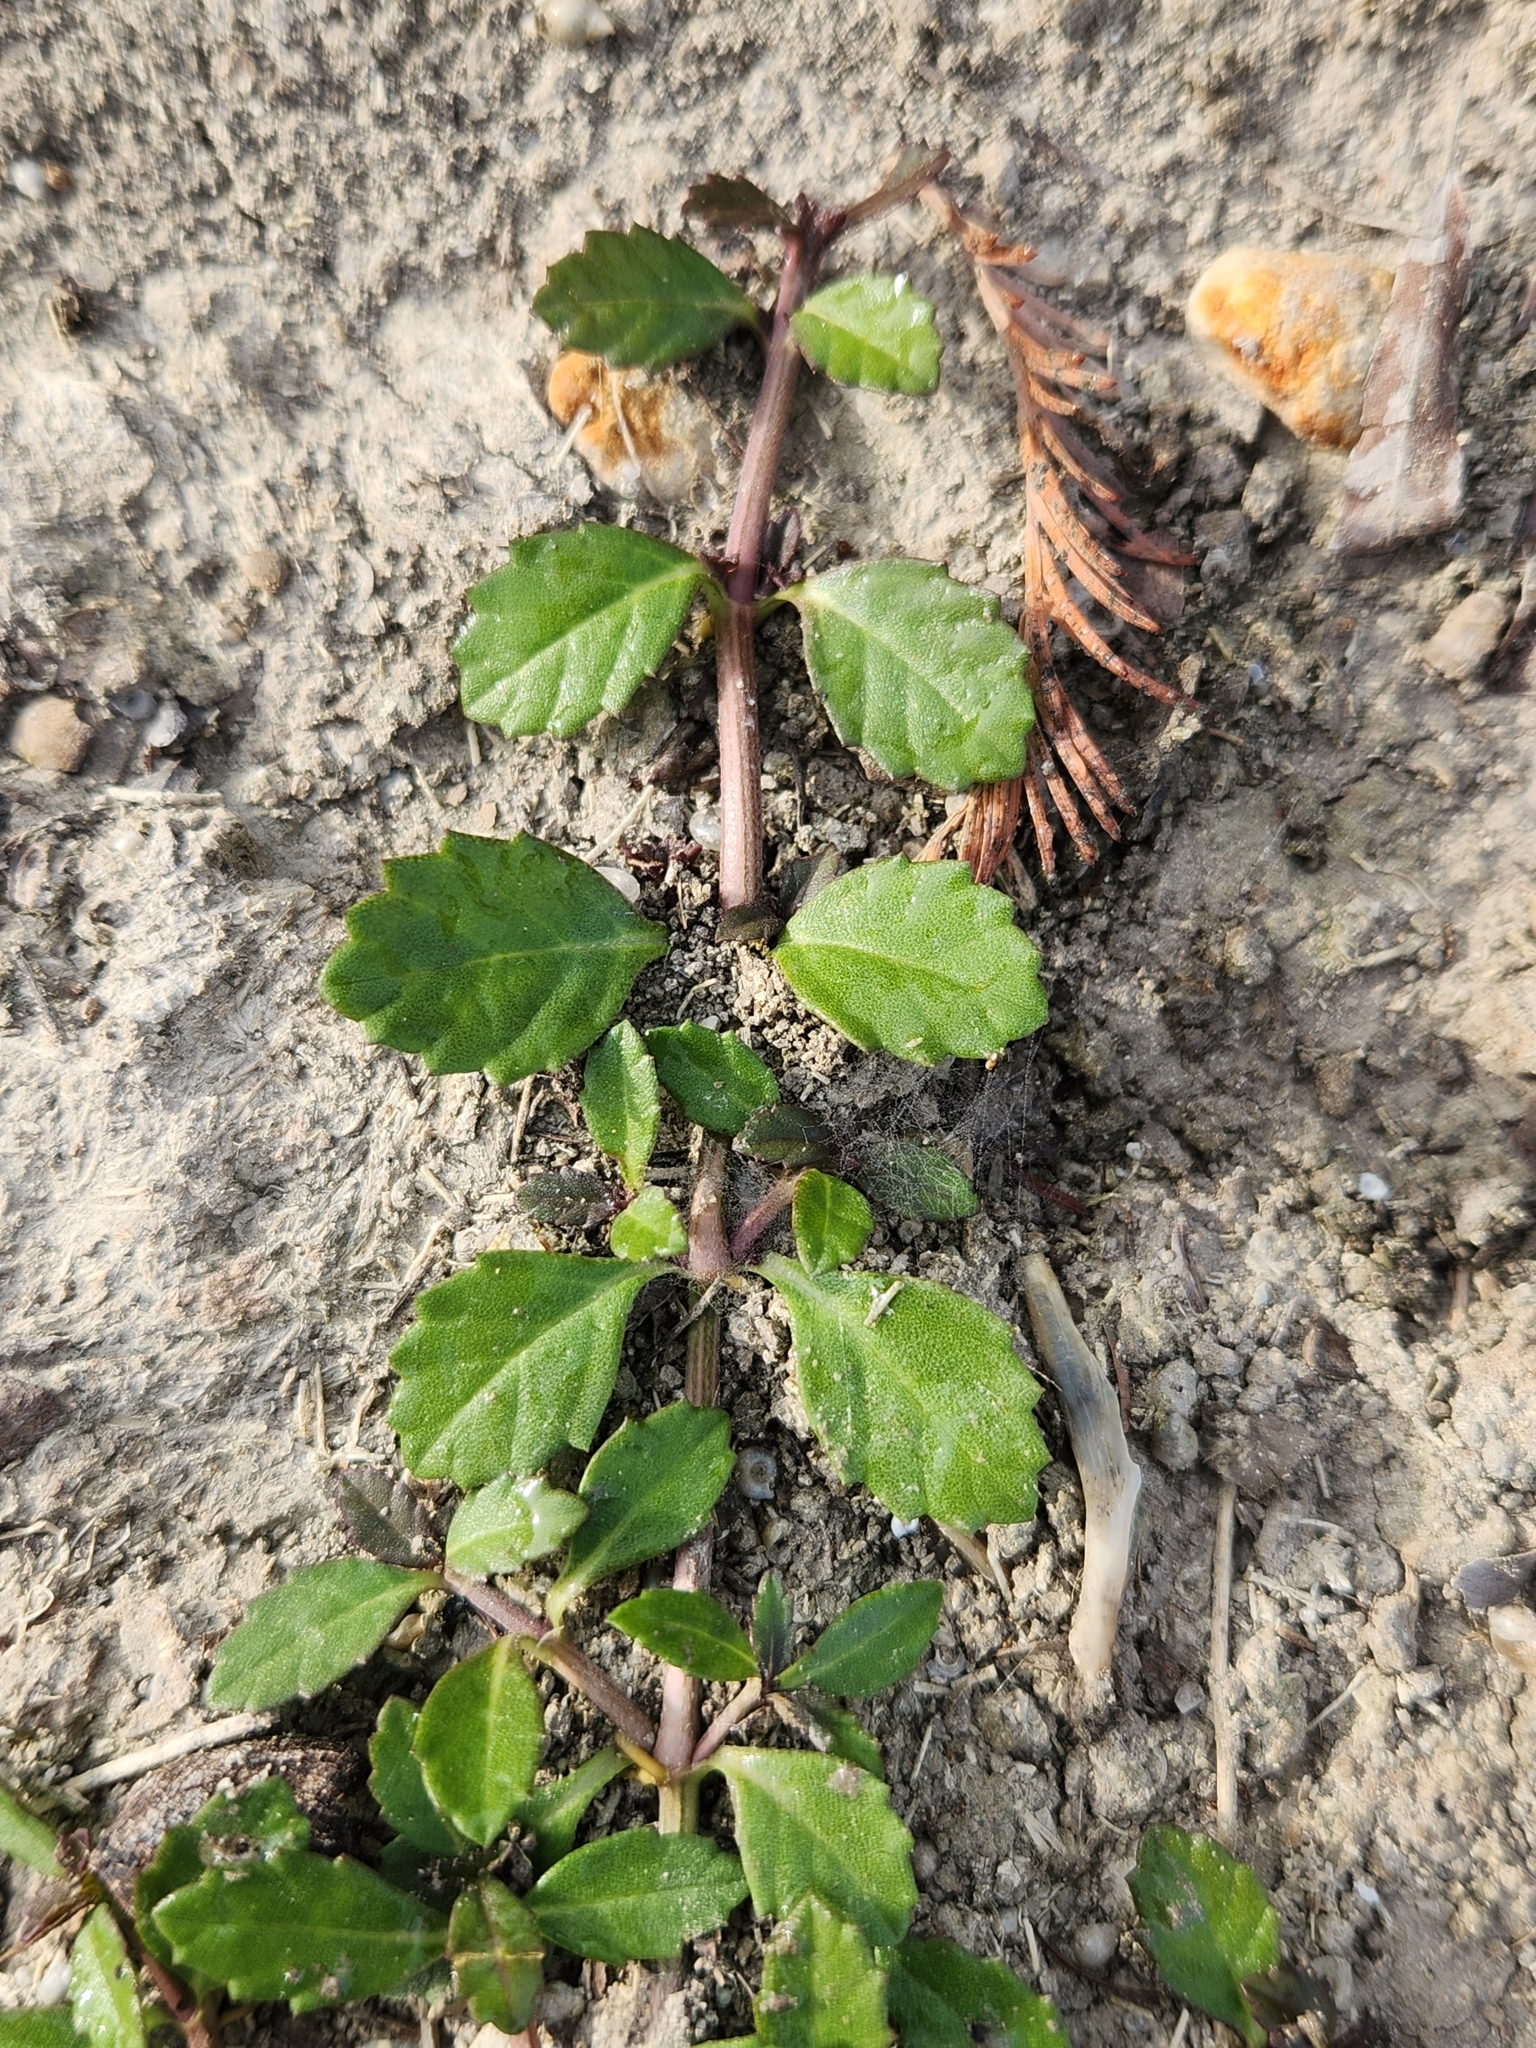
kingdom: Plantae
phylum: Tracheophyta
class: Magnoliopsida
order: Lamiales
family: Verbenaceae
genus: Phyla
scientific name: Phyla nodiflora
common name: Frogfruit
